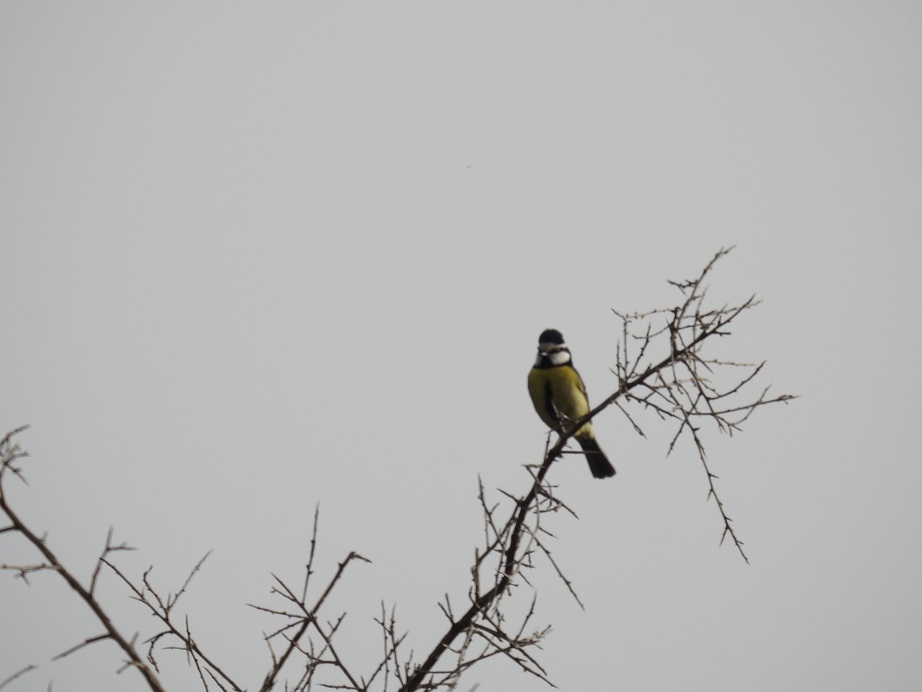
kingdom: Animalia
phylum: Chordata
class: Aves
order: Passeriformes
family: Paridae
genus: Cyanistes
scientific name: Cyanistes teneriffae
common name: African blue tit
